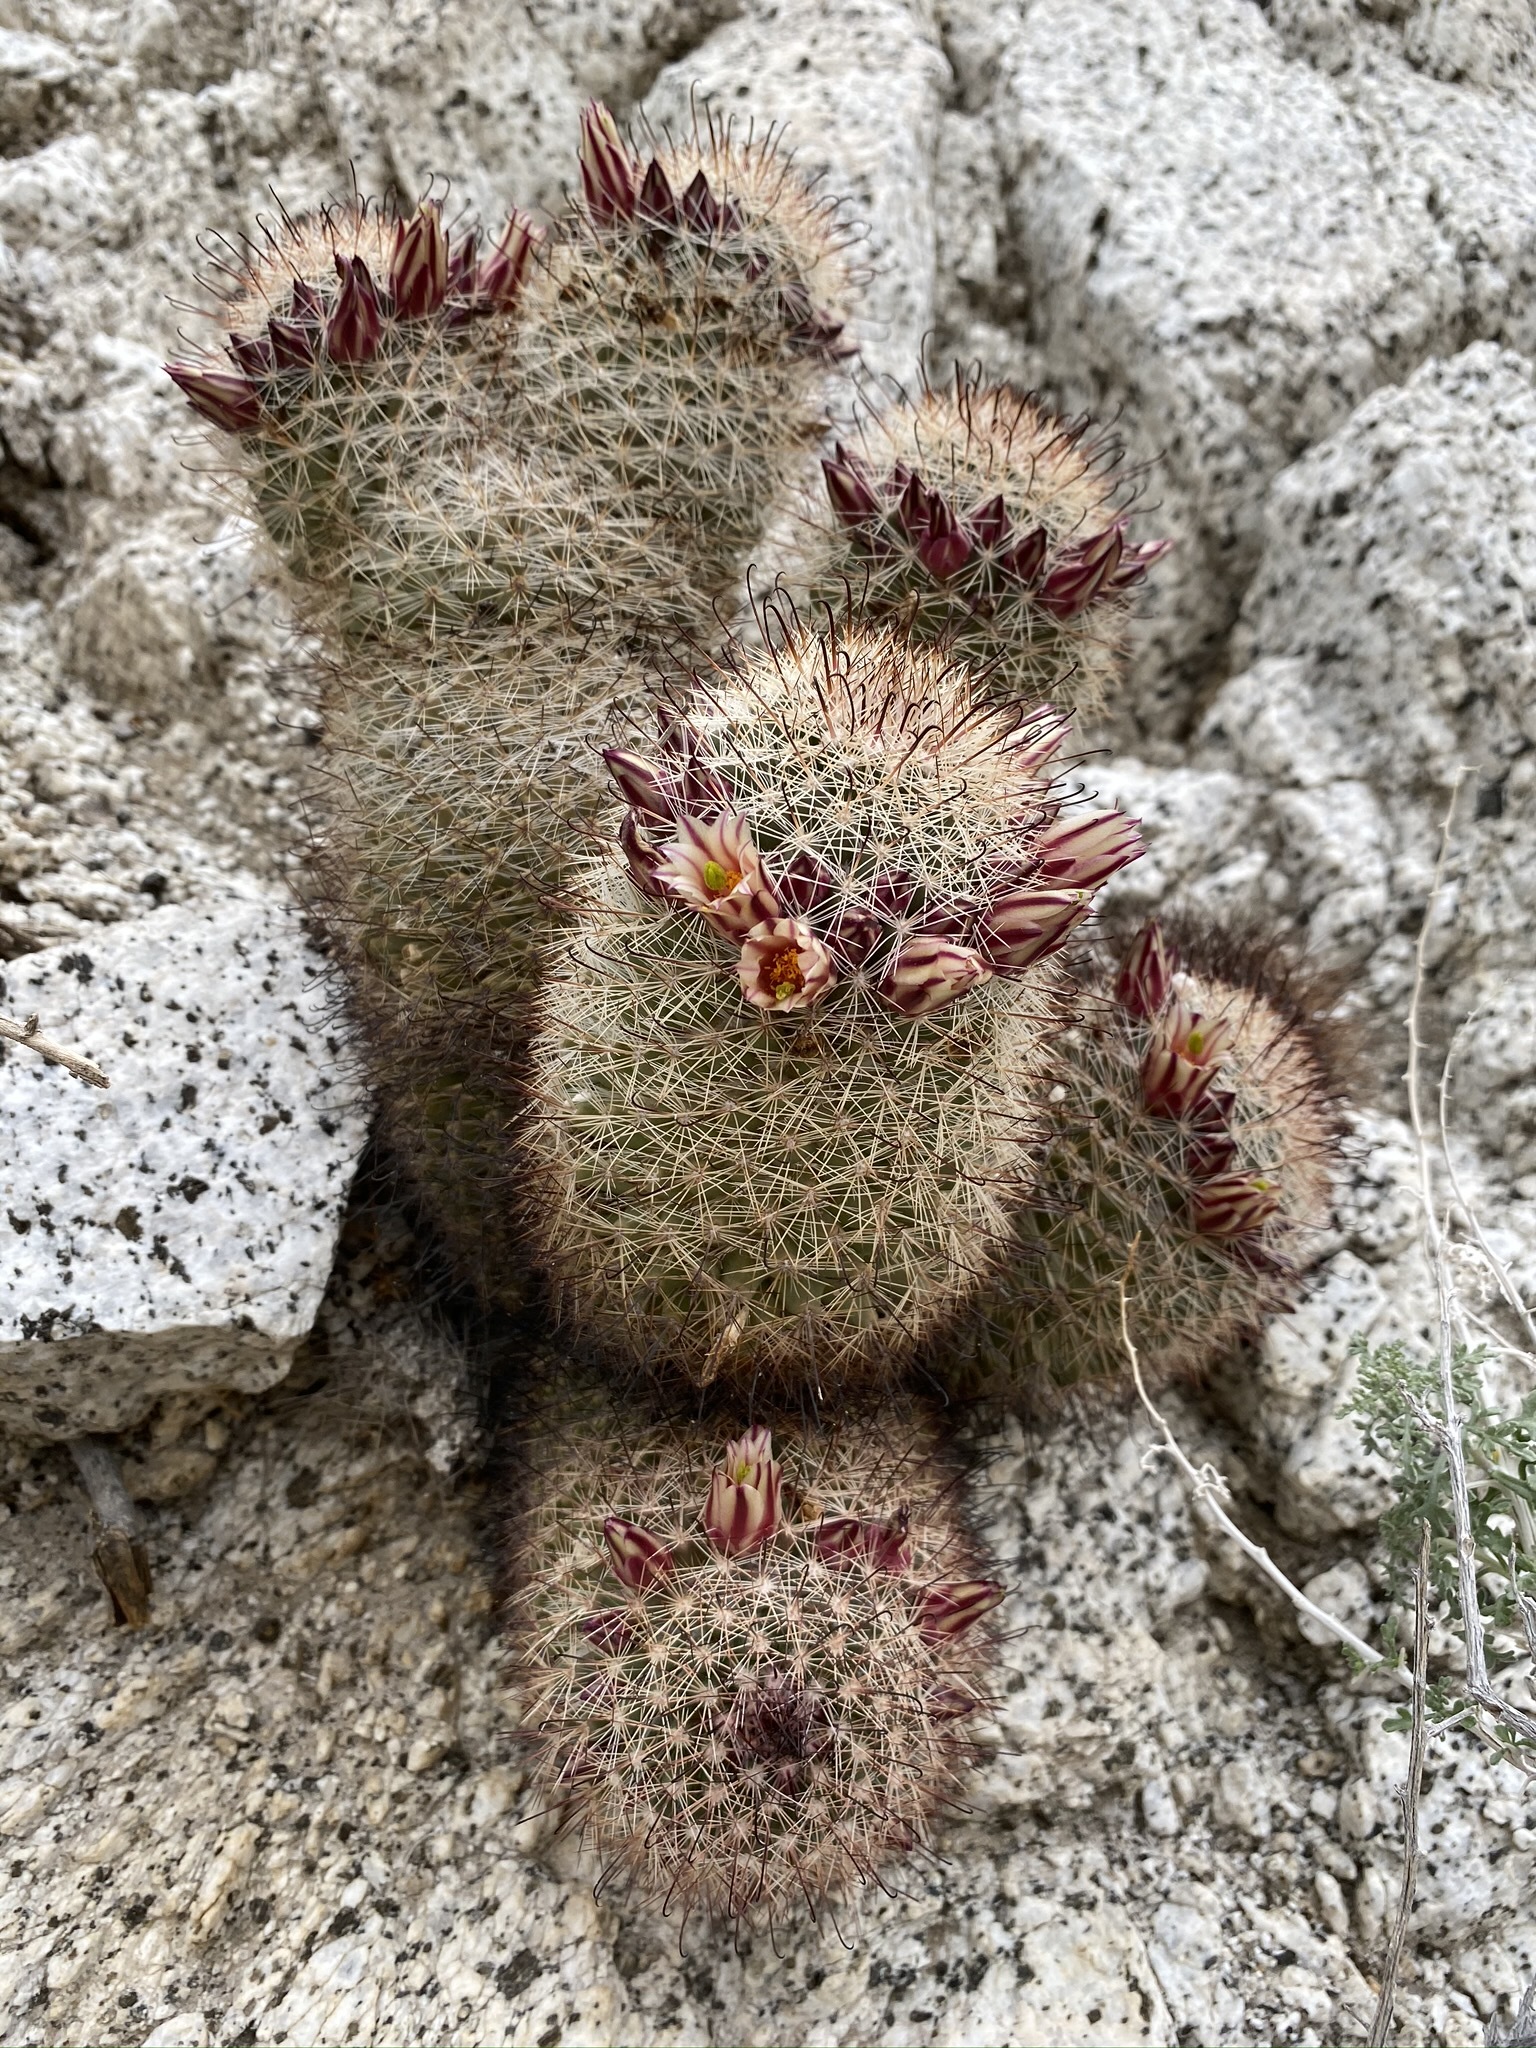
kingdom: Plantae
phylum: Tracheophyta
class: Magnoliopsida
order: Caryophyllales
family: Cactaceae
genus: Cochemiea
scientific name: Cochemiea dioica
